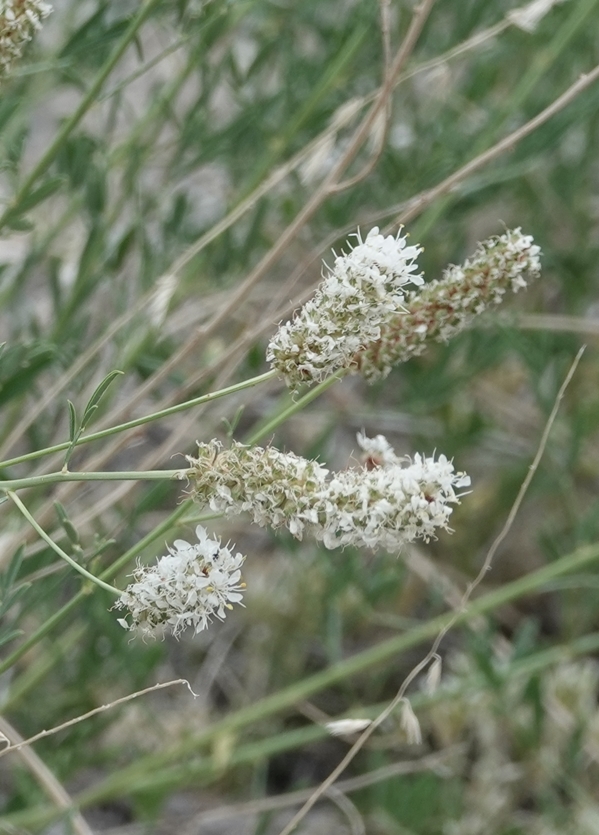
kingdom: Plantae
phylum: Tracheophyta
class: Magnoliopsida
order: Fabales
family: Fabaceae
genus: Dalea
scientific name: Dalea candida
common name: White prairie-clover
